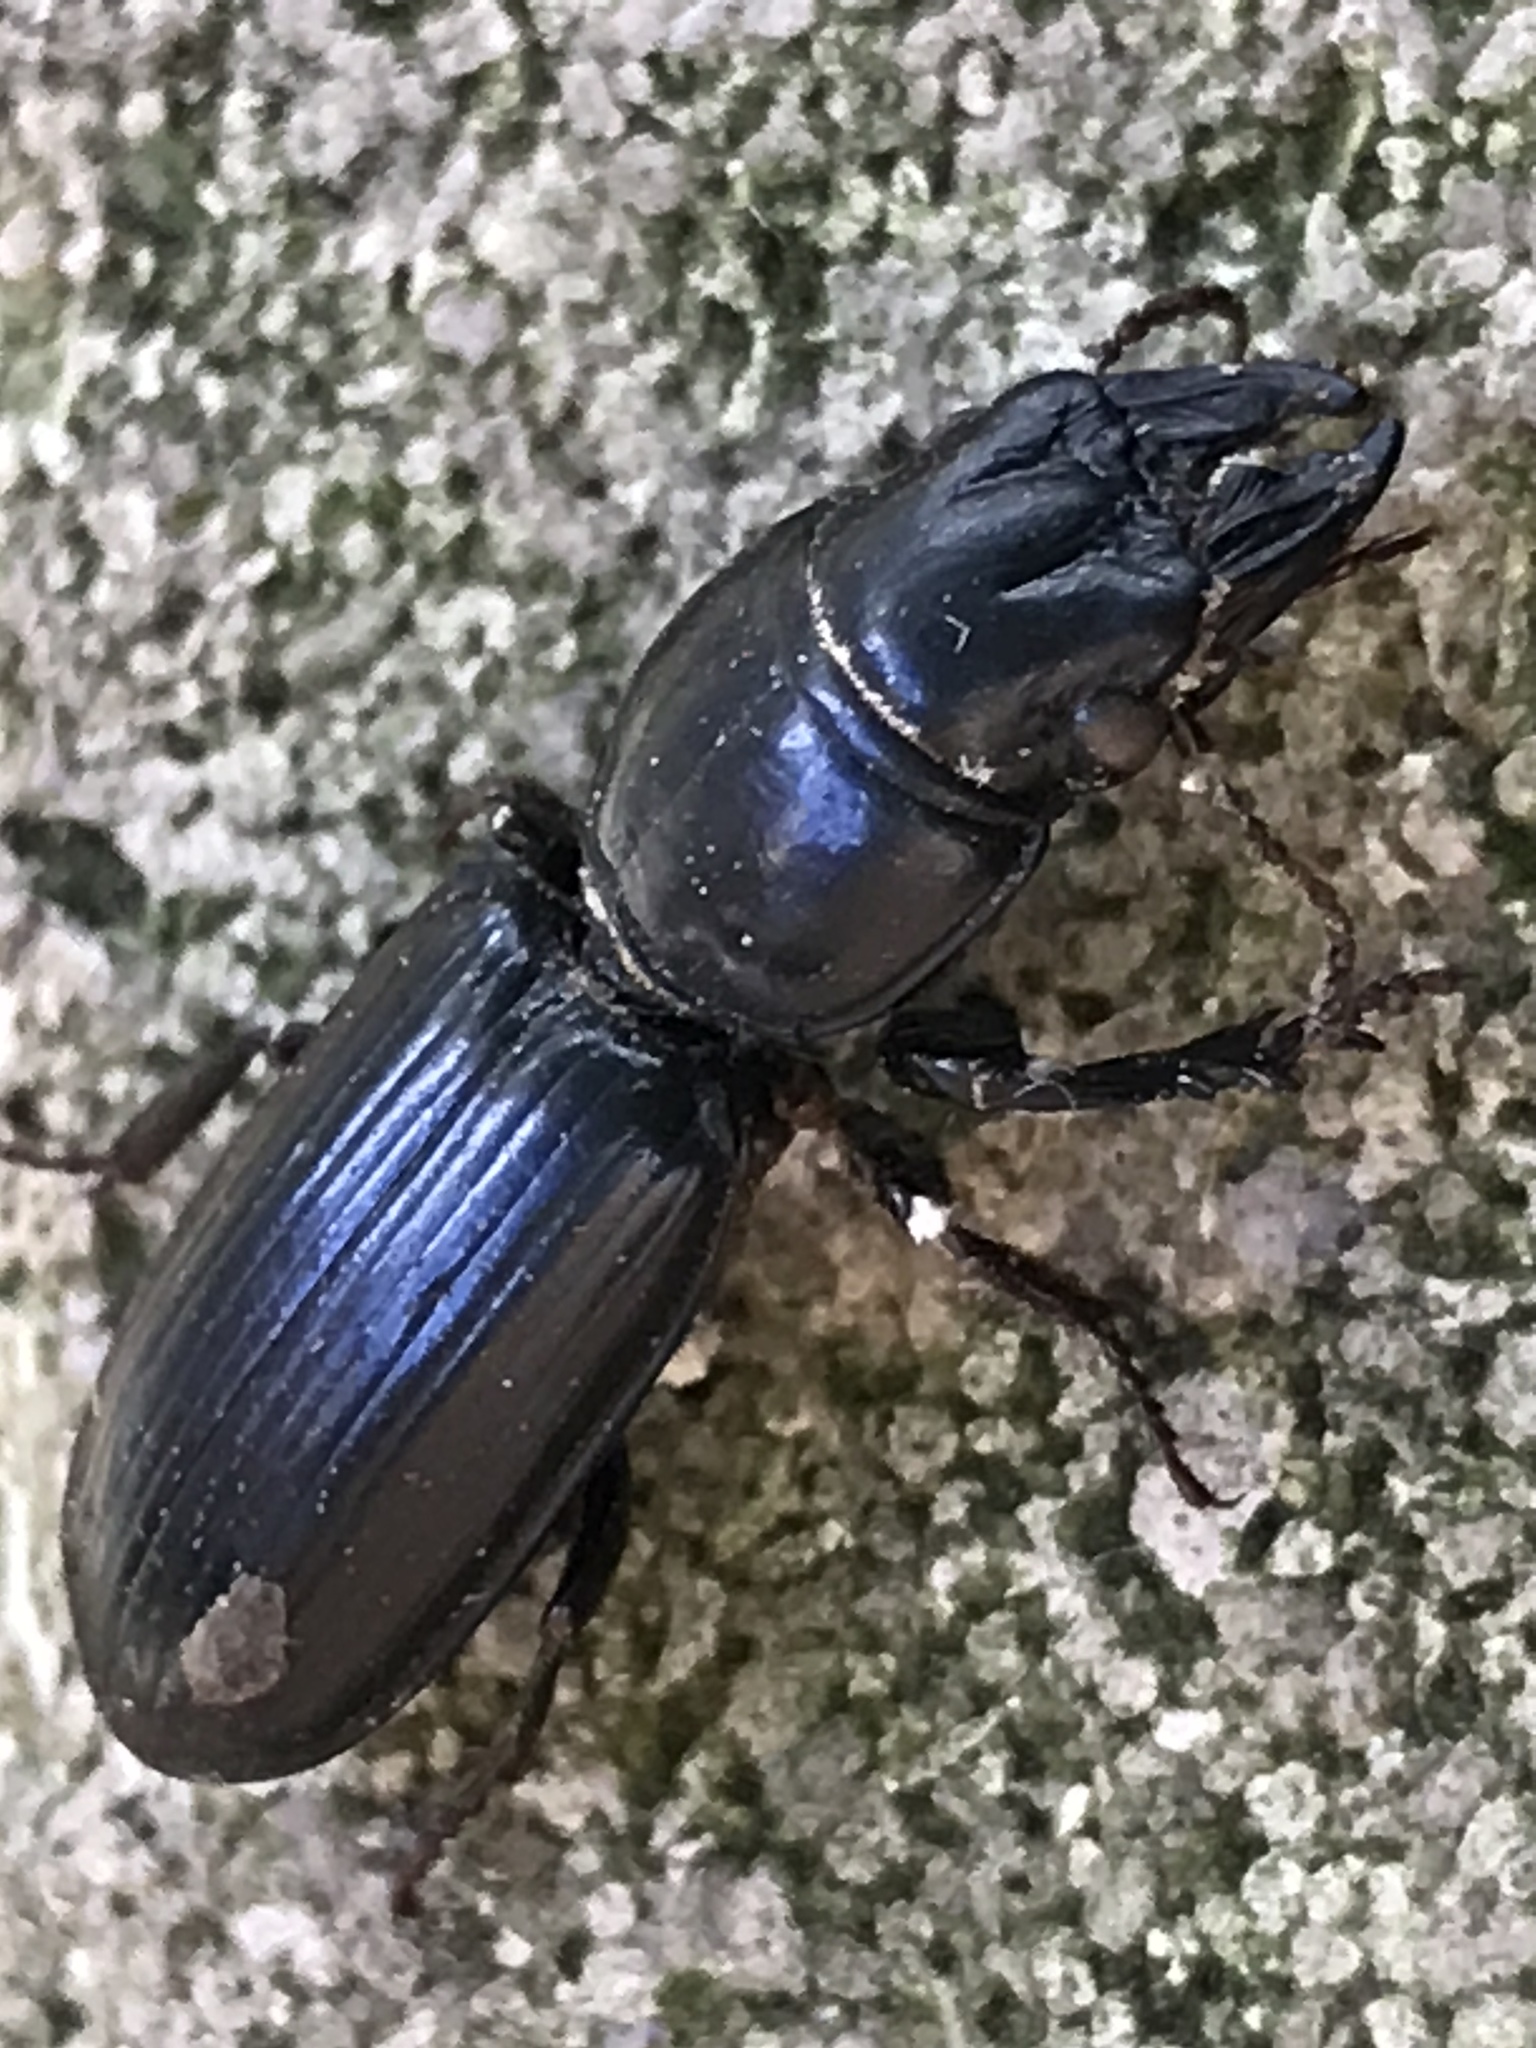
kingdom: Animalia
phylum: Arthropoda
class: Insecta
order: Coleoptera
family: Carabidae
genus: Scarites
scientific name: Scarites subterraneus
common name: Big-headed ground beetle
